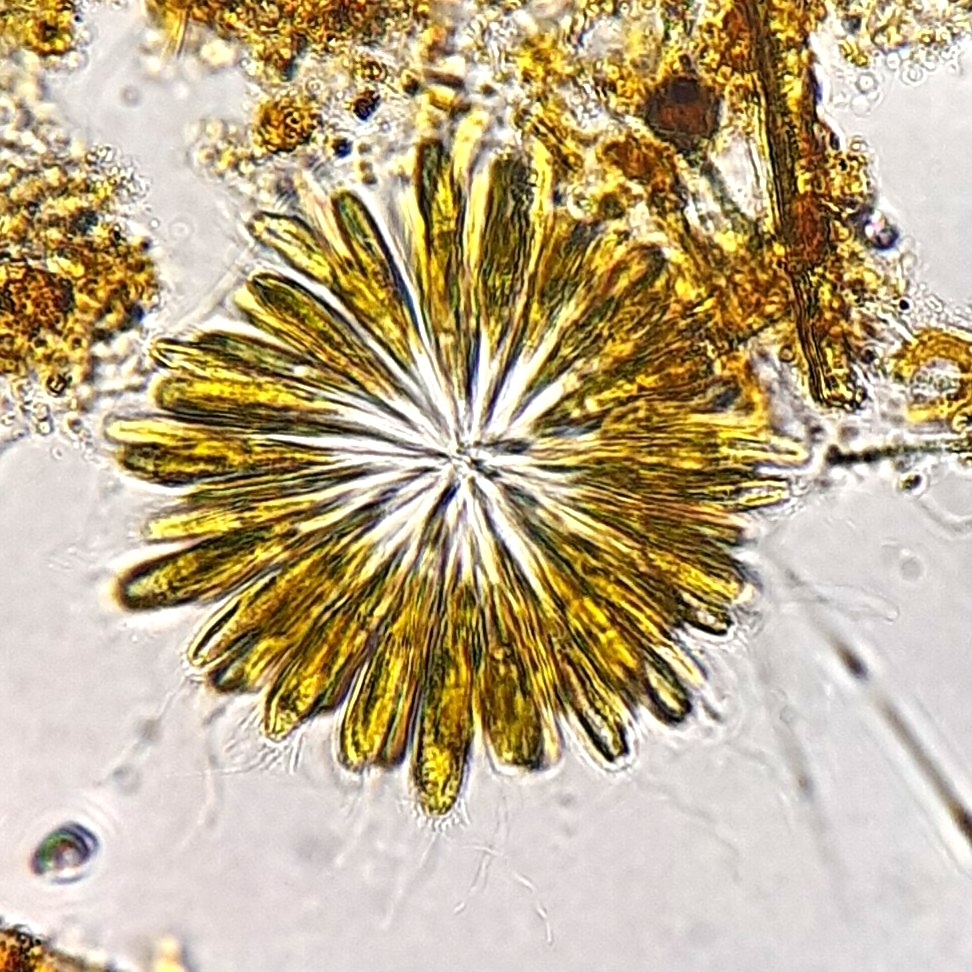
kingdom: Chromista
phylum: Ochrophyta
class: Synurophyceae
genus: Synura
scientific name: Synura
